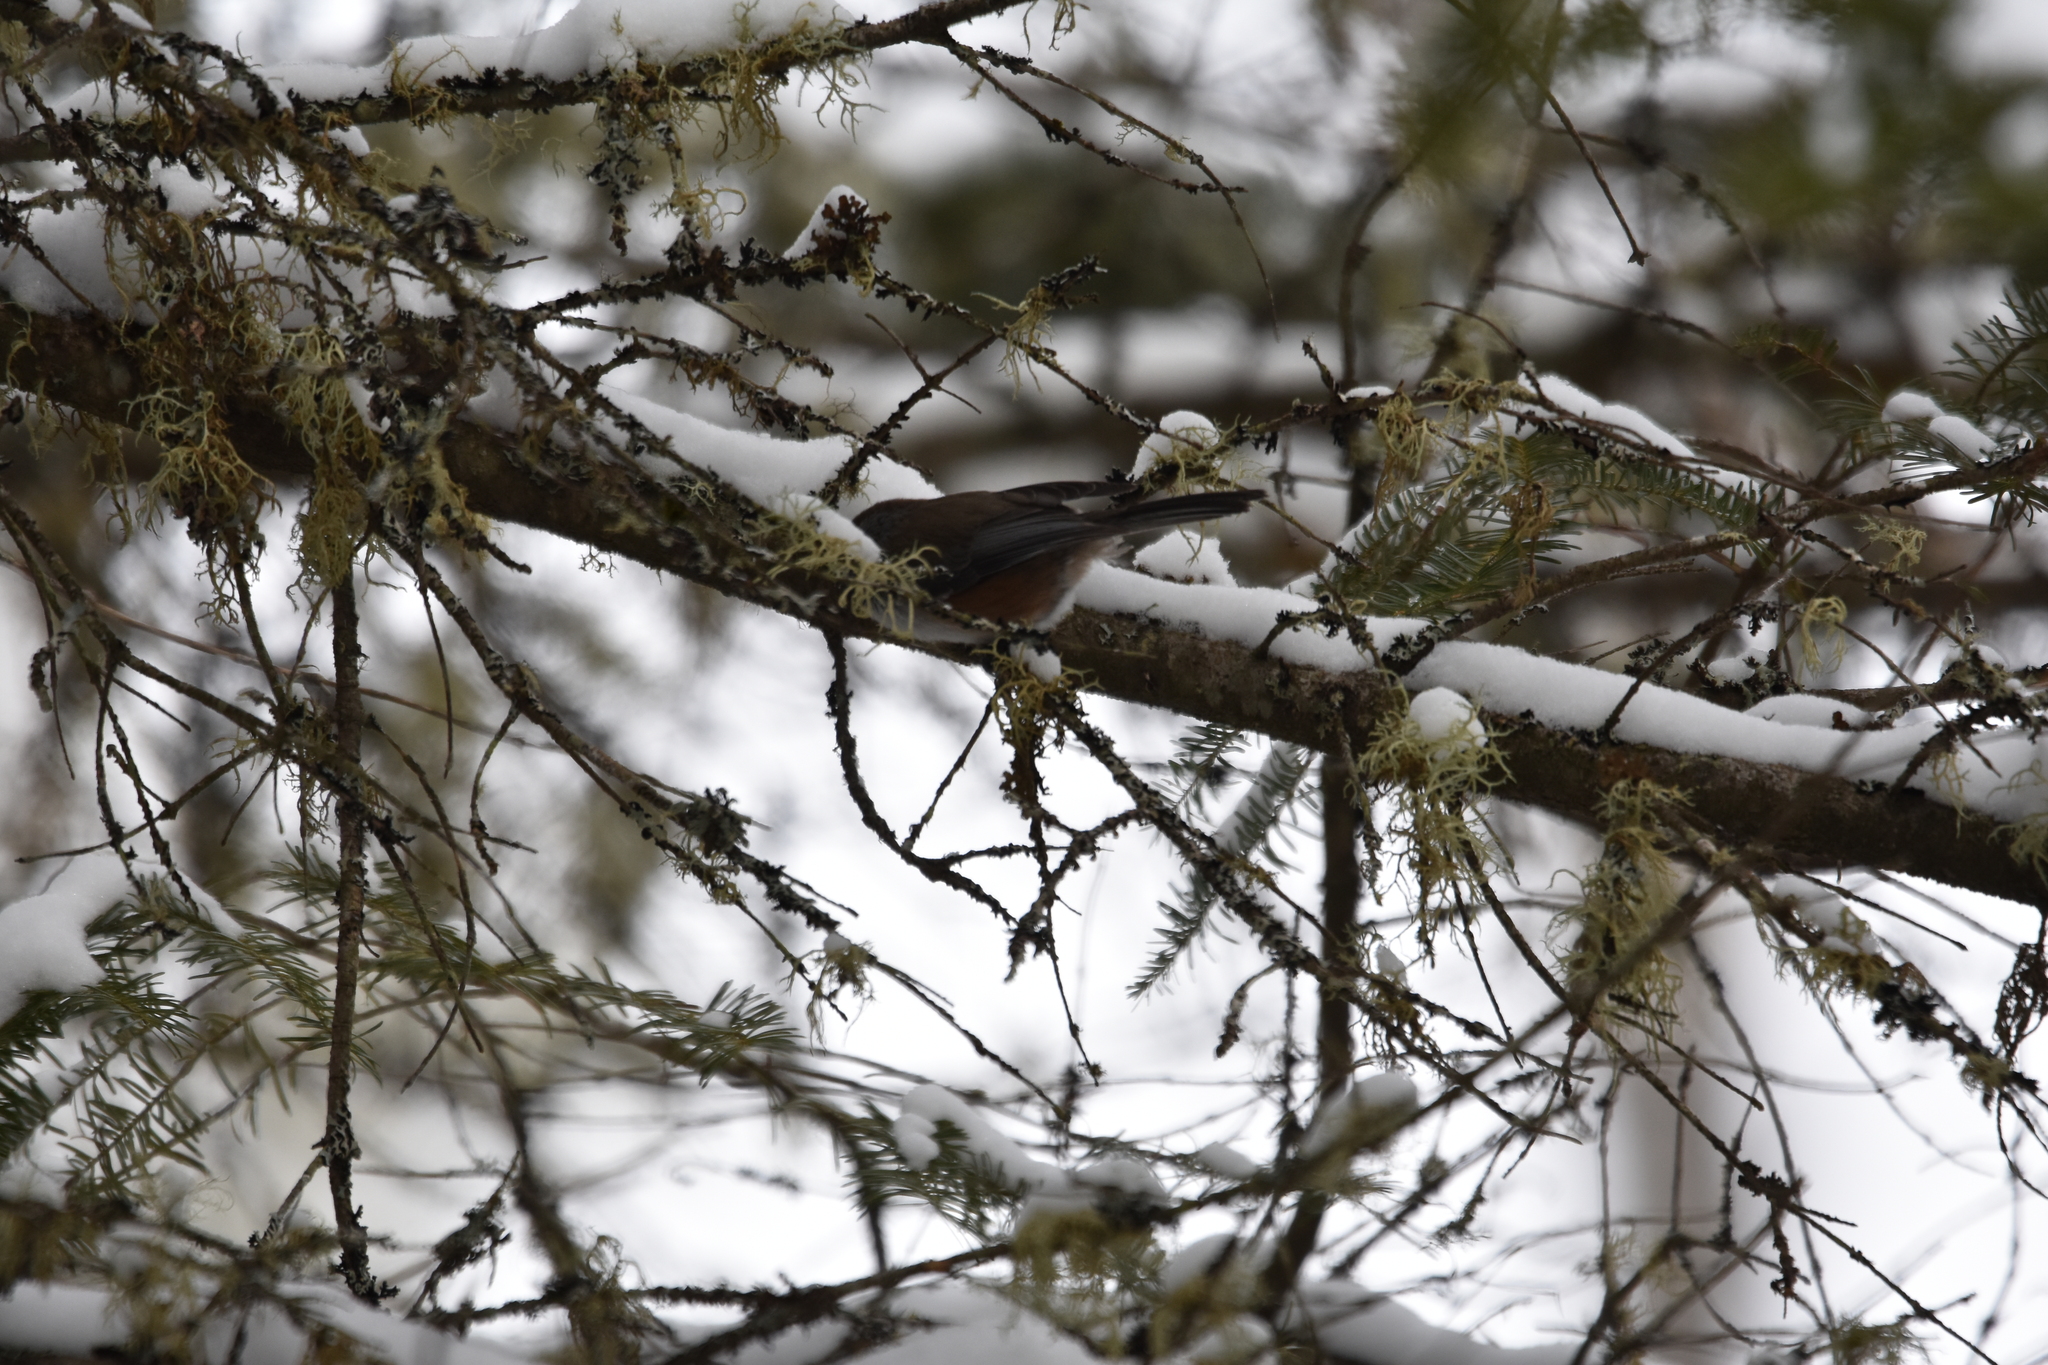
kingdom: Animalia
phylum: Chordata
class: Aves
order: Passeriformes
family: Paridae
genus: Poecile
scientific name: Poecile hudsonicus
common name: Boreal chickadee
